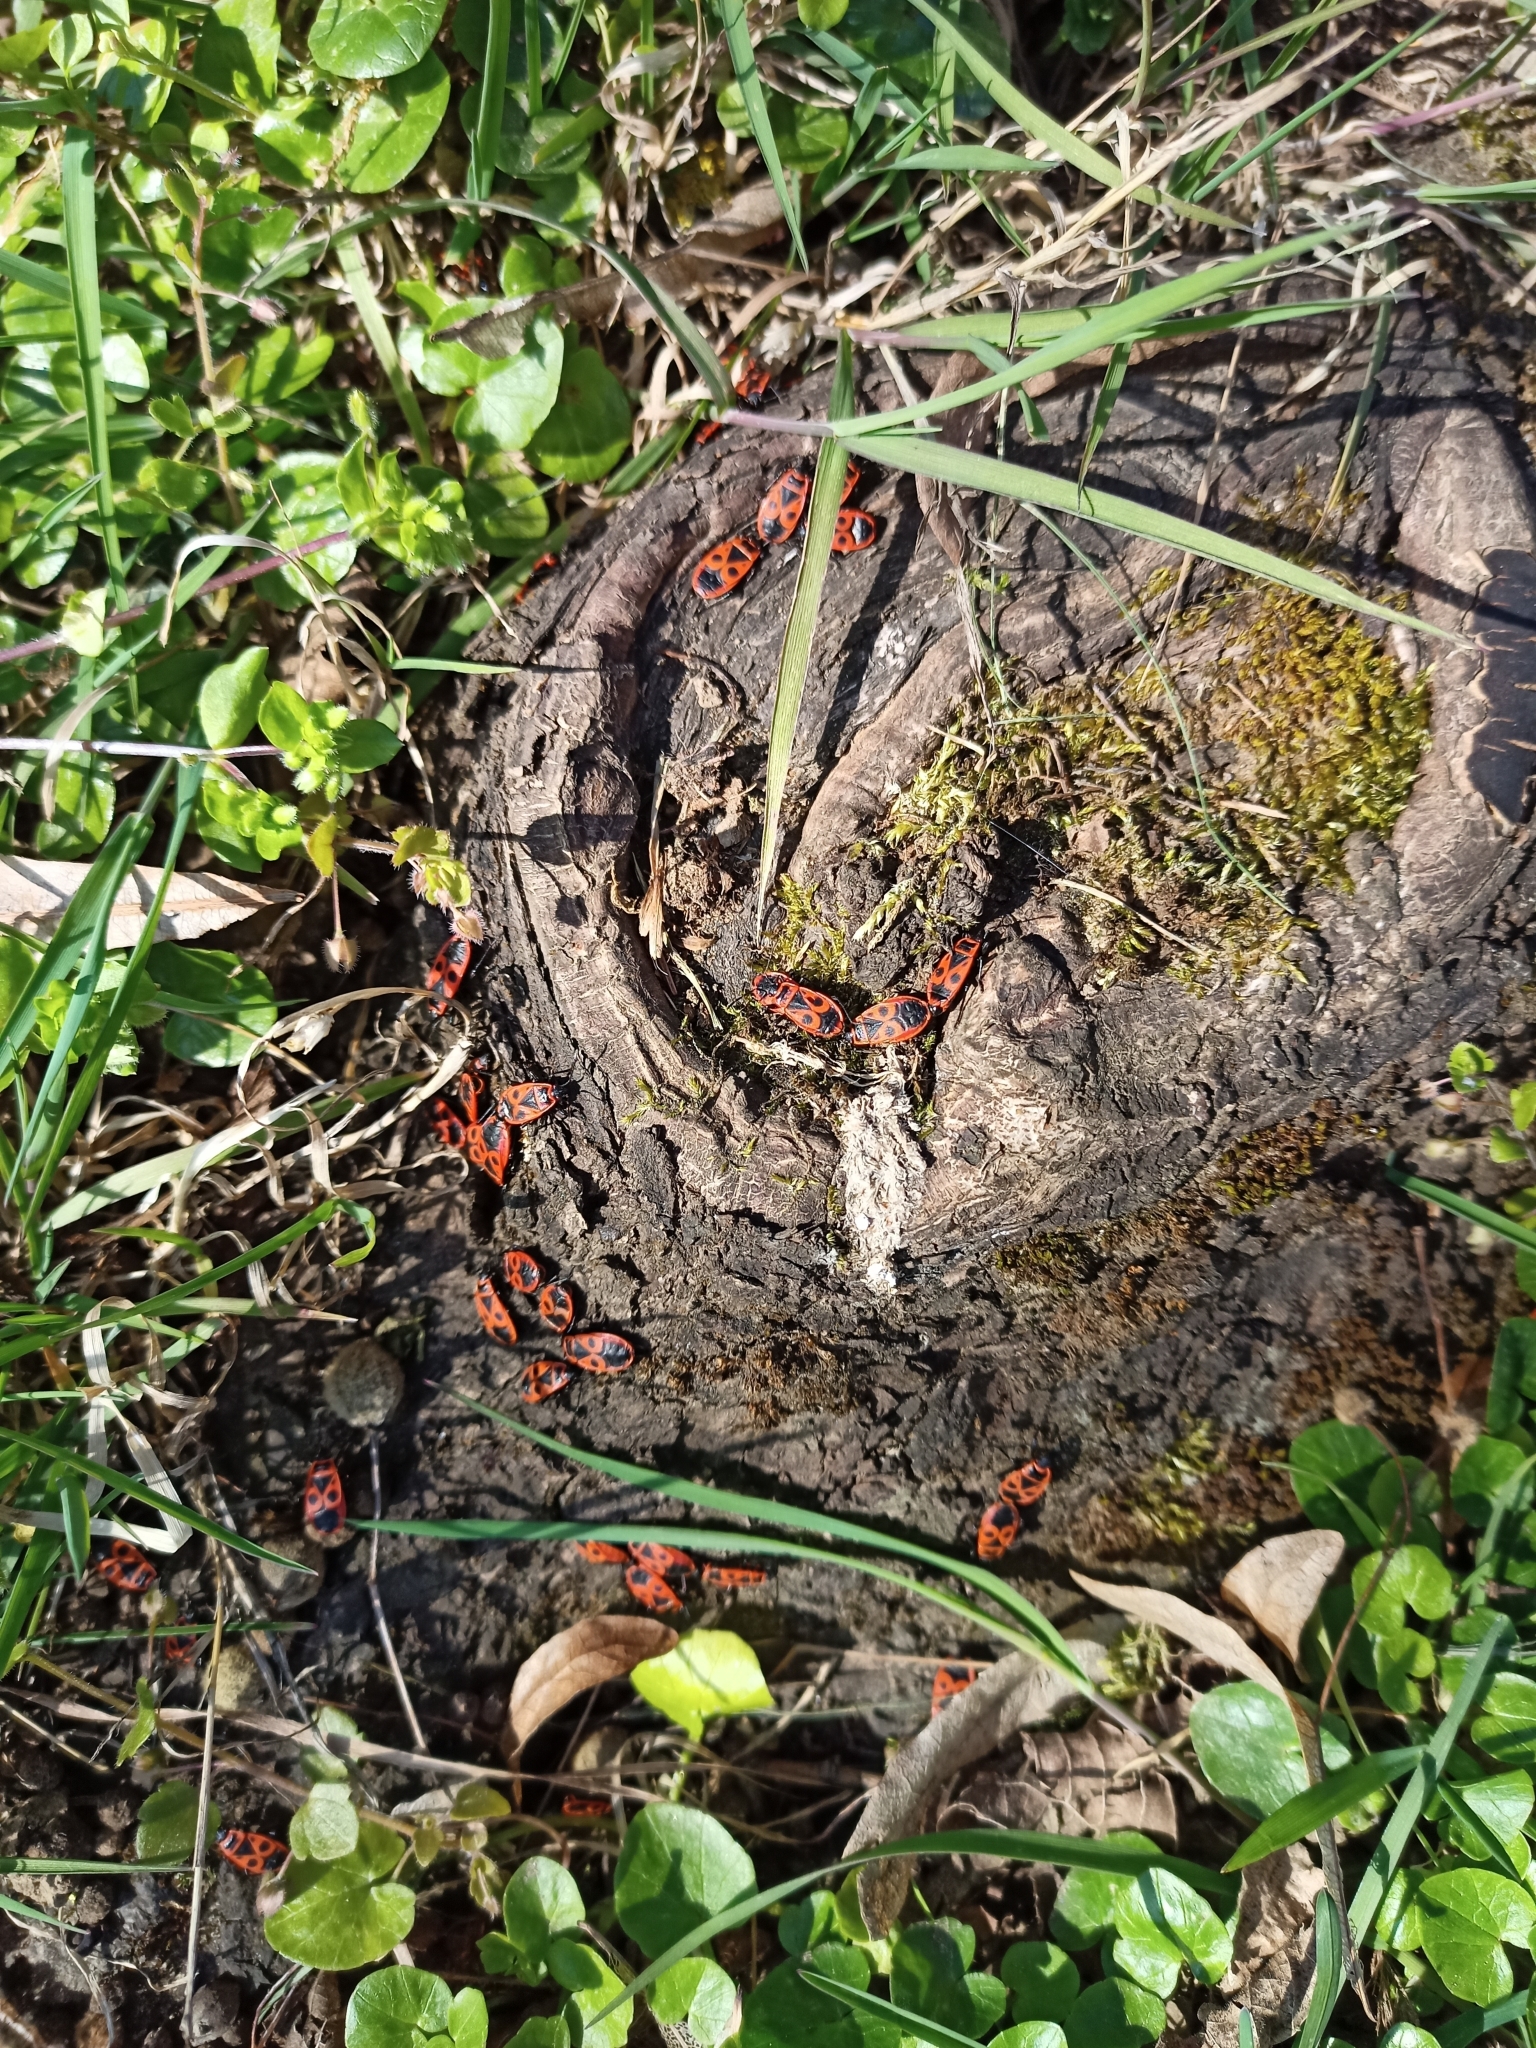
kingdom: Animalia
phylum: Arthropoda
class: Insecta
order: Hemiptera
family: Pyrrhocoridae
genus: Pyrrhocoris
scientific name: Pyrrhocoris apterus
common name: Firebug
